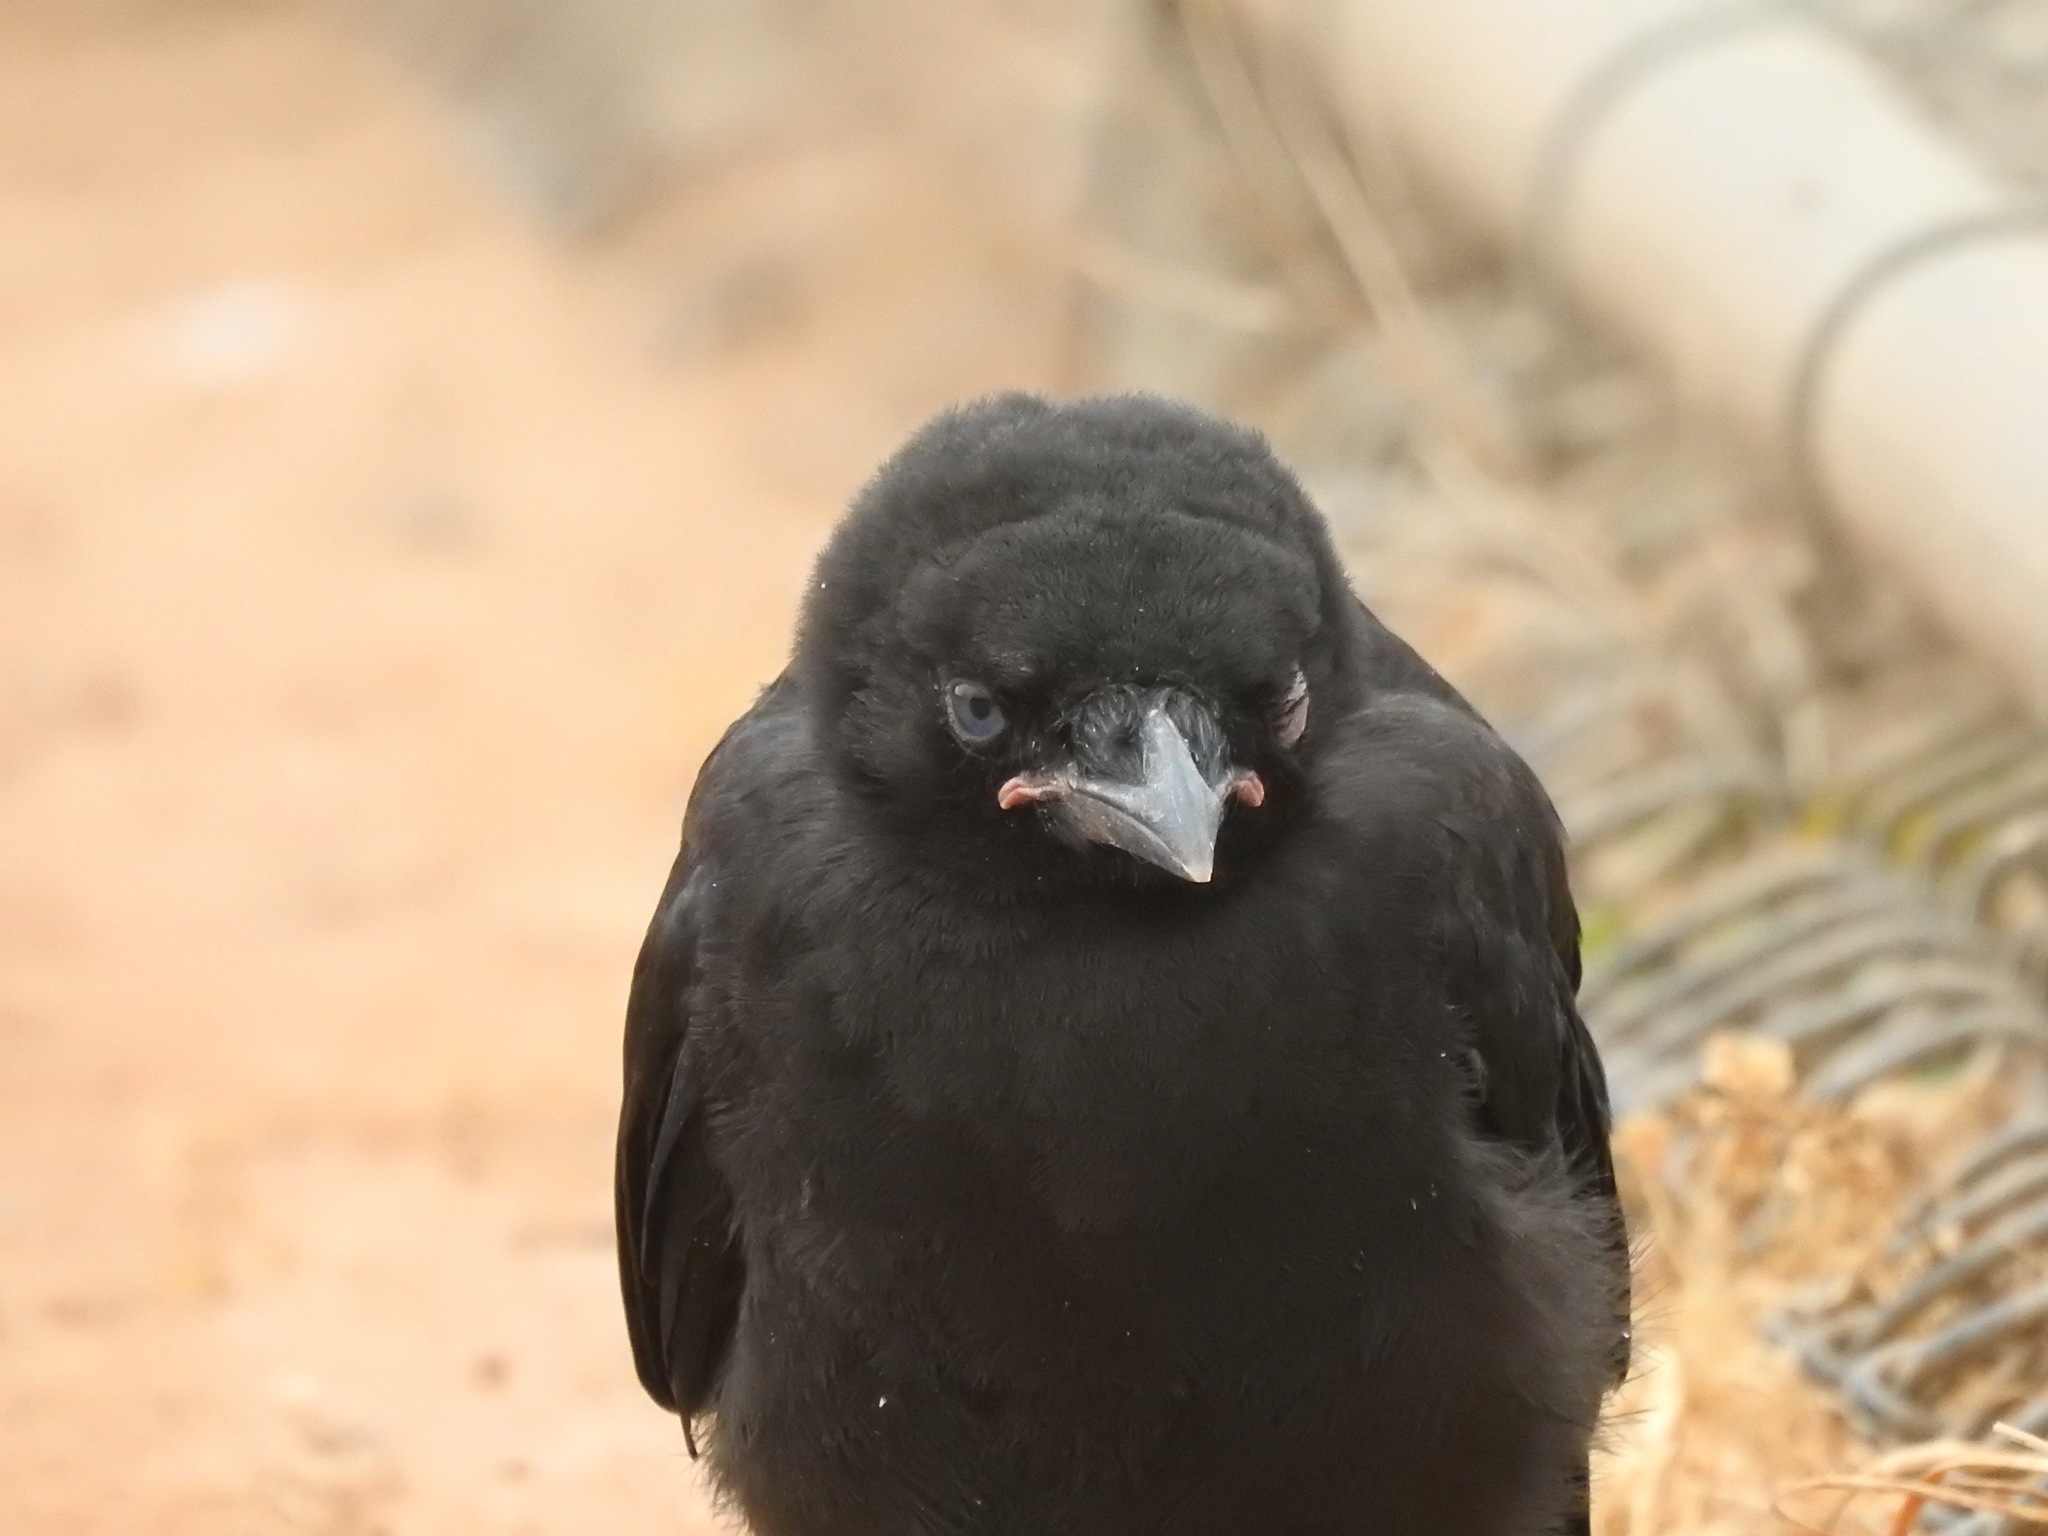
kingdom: Animalia
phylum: Chordata
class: Aves
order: Passeriformes
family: Corvidae
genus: Corvus
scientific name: Corvus brachyrhynchos
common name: American crow
